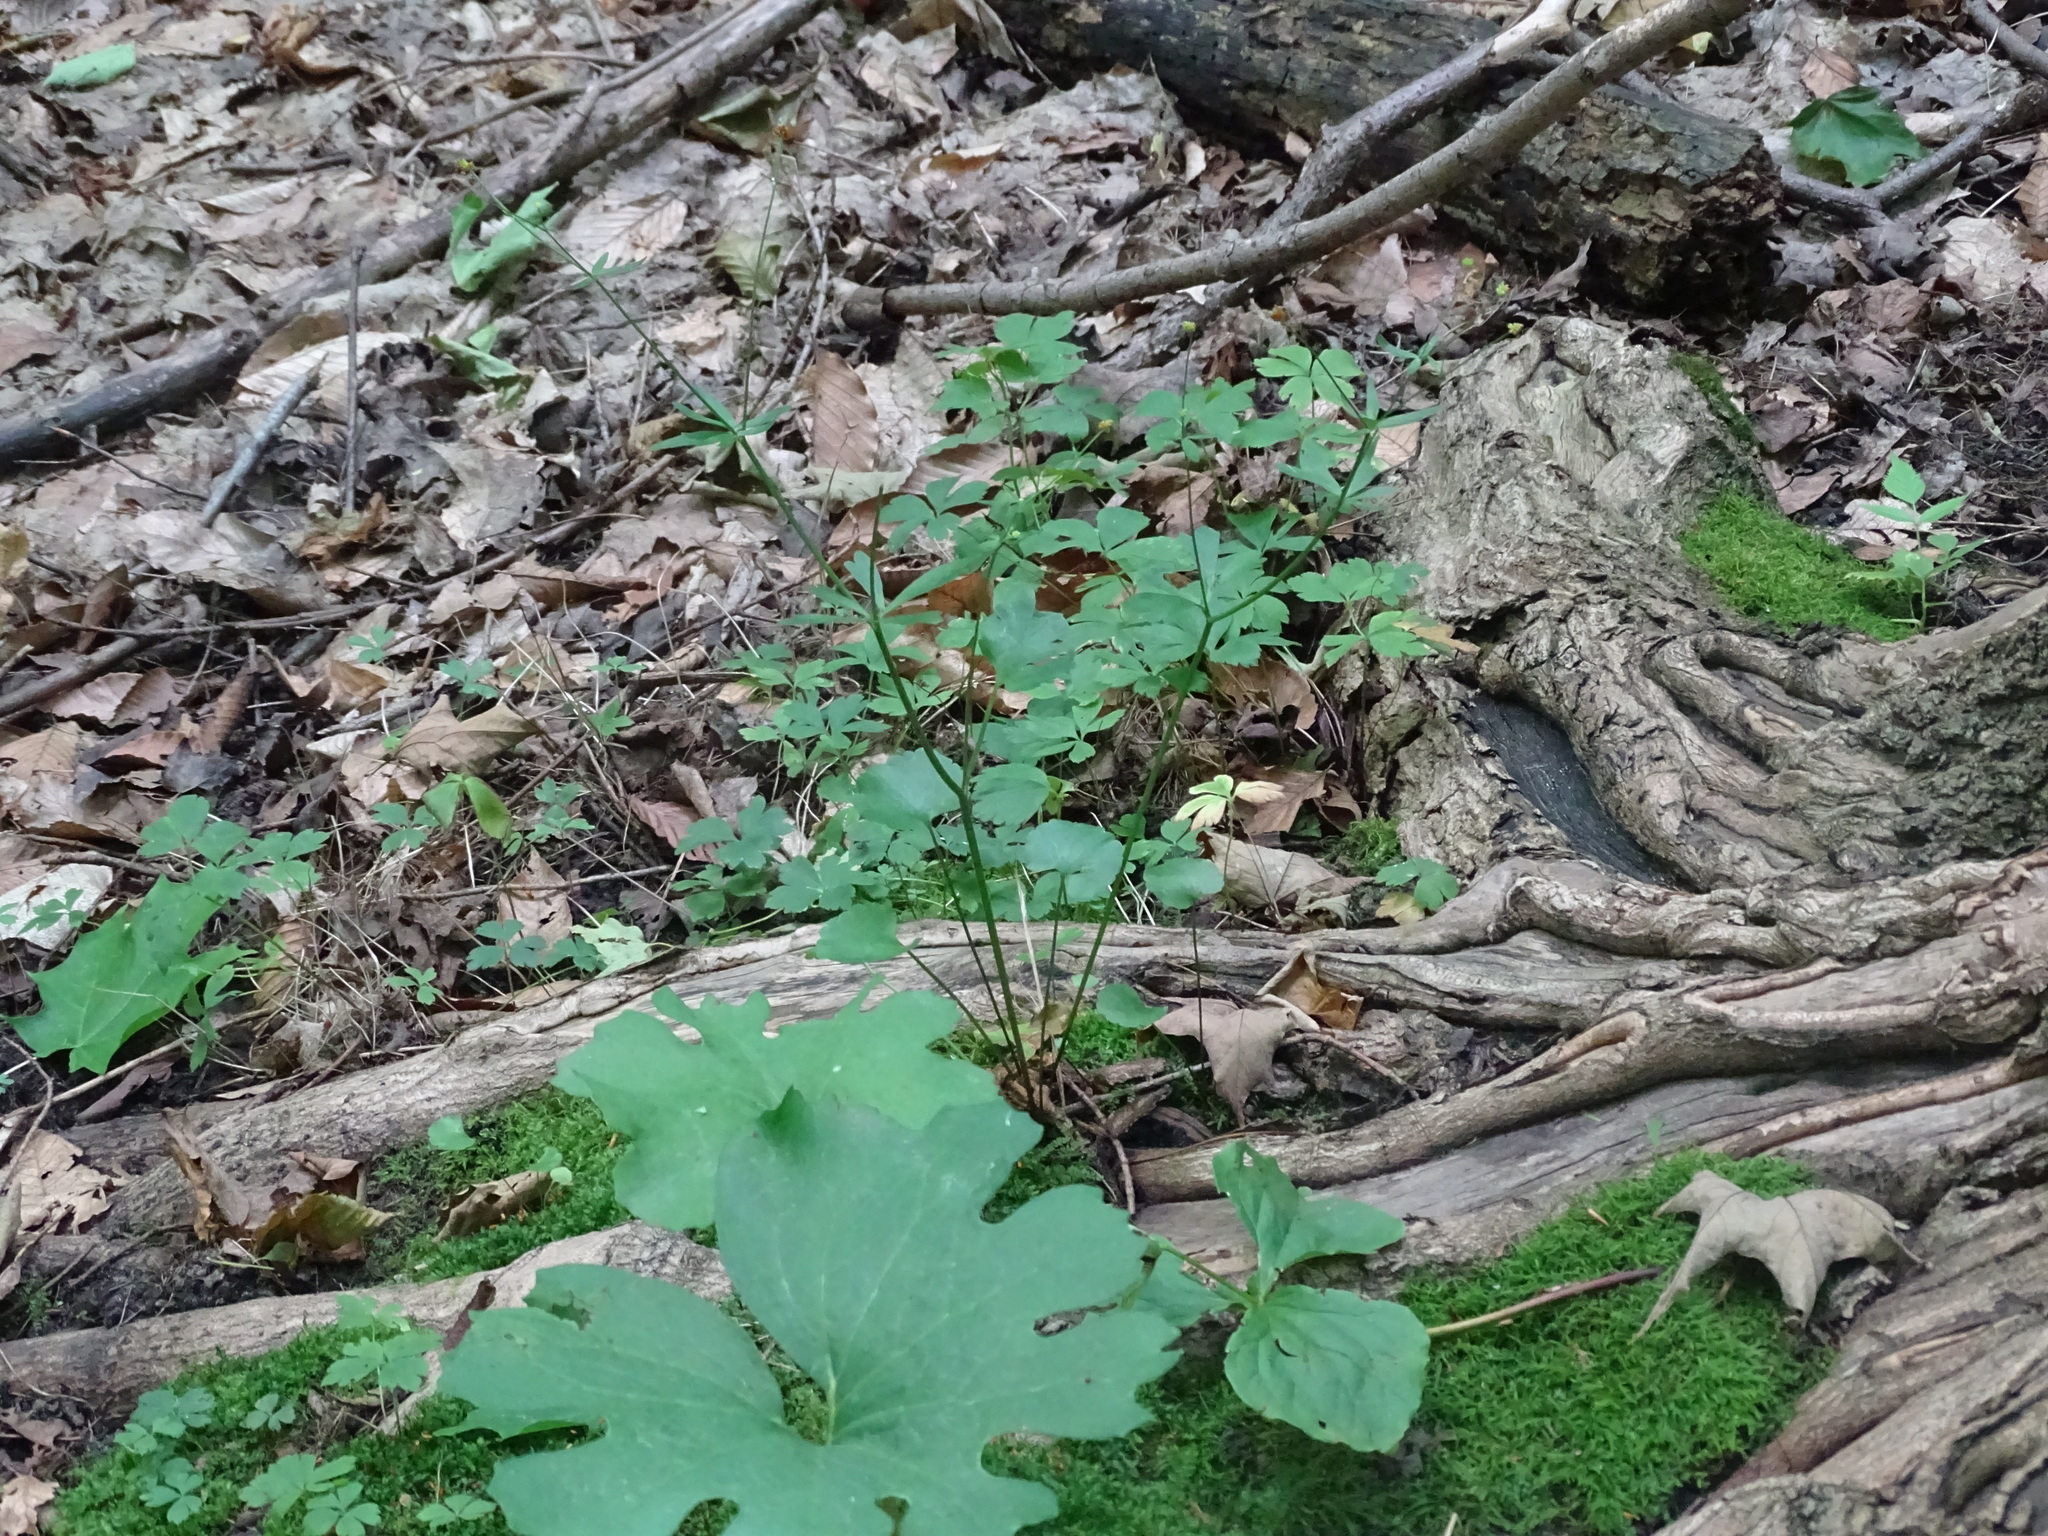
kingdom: Plantae
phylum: Tracheophyta
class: Magnoliopsida
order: Ranunculales
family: Ranunculaceae
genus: Ranunculus
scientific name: Ranunculus abortivus
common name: Early wood buttercup
